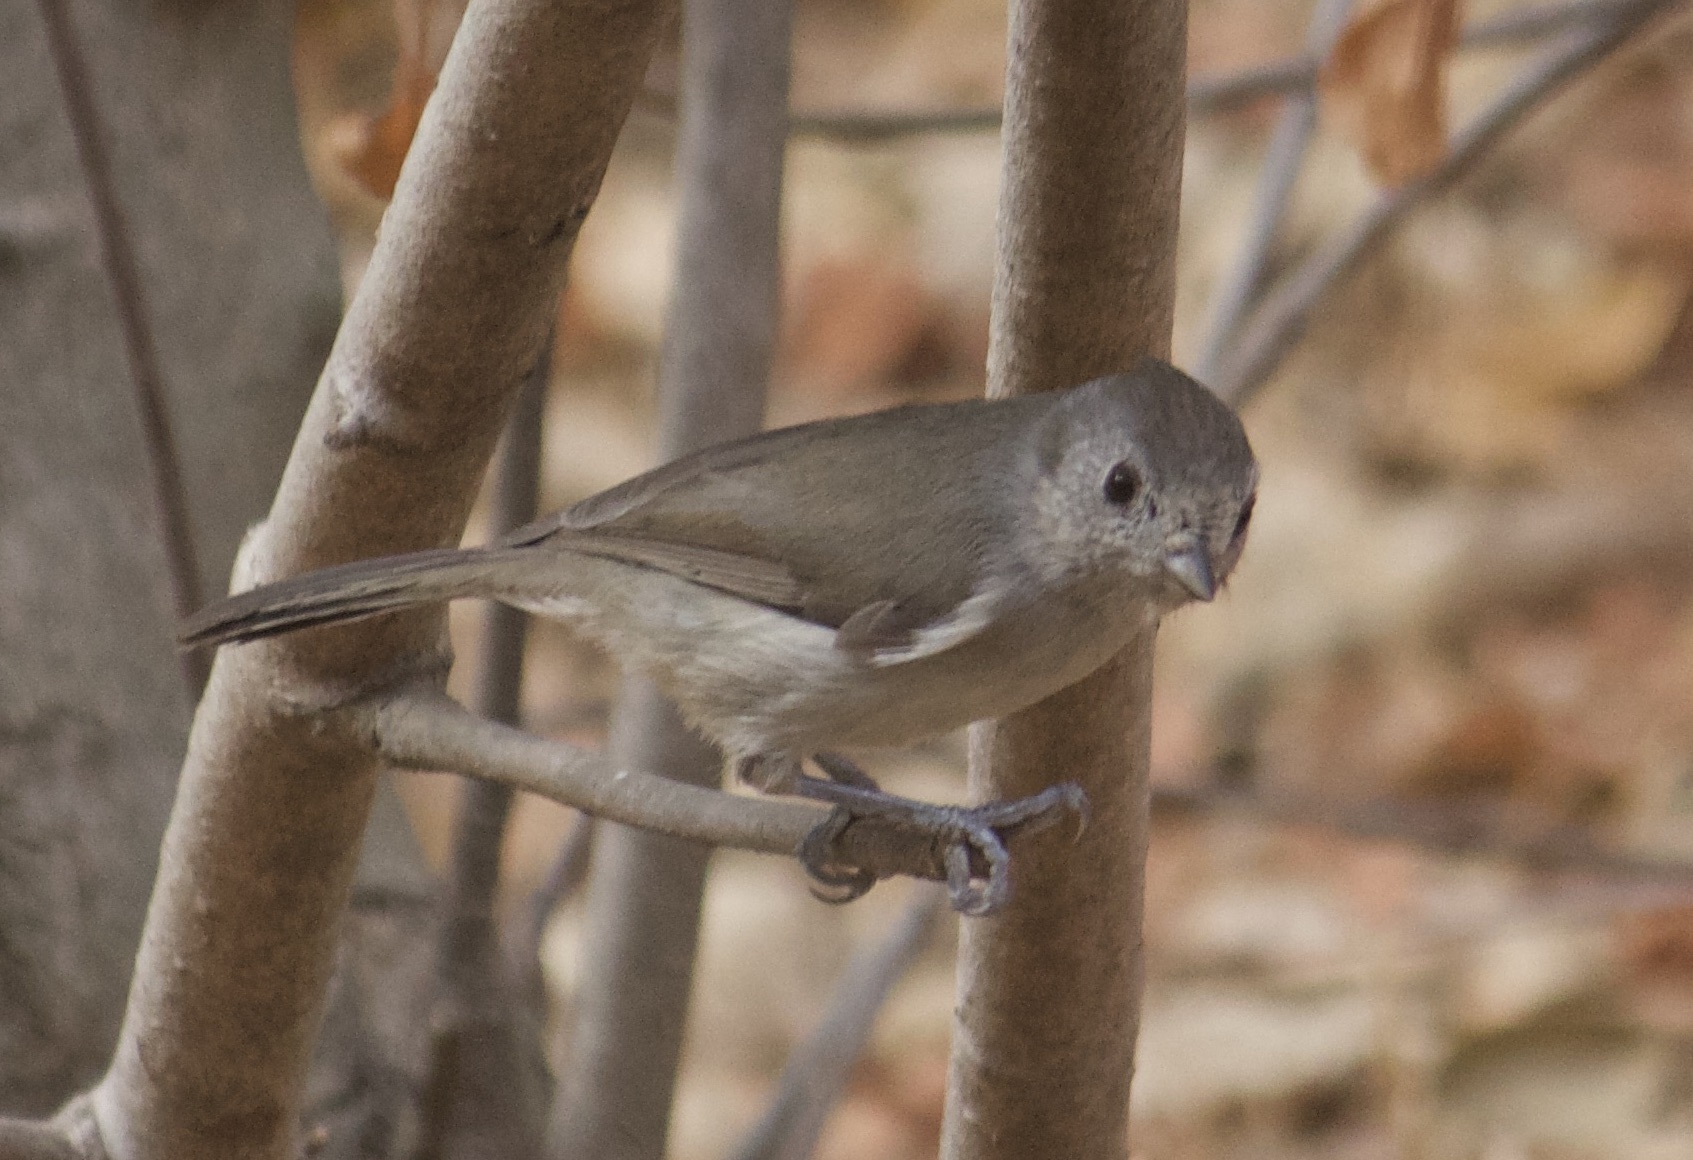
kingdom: Animalia
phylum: Chordata
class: Aves
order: Passeriformes
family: Paridae
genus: Baeolophus
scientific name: Baeolophus inornatus
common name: Oak titmouse
